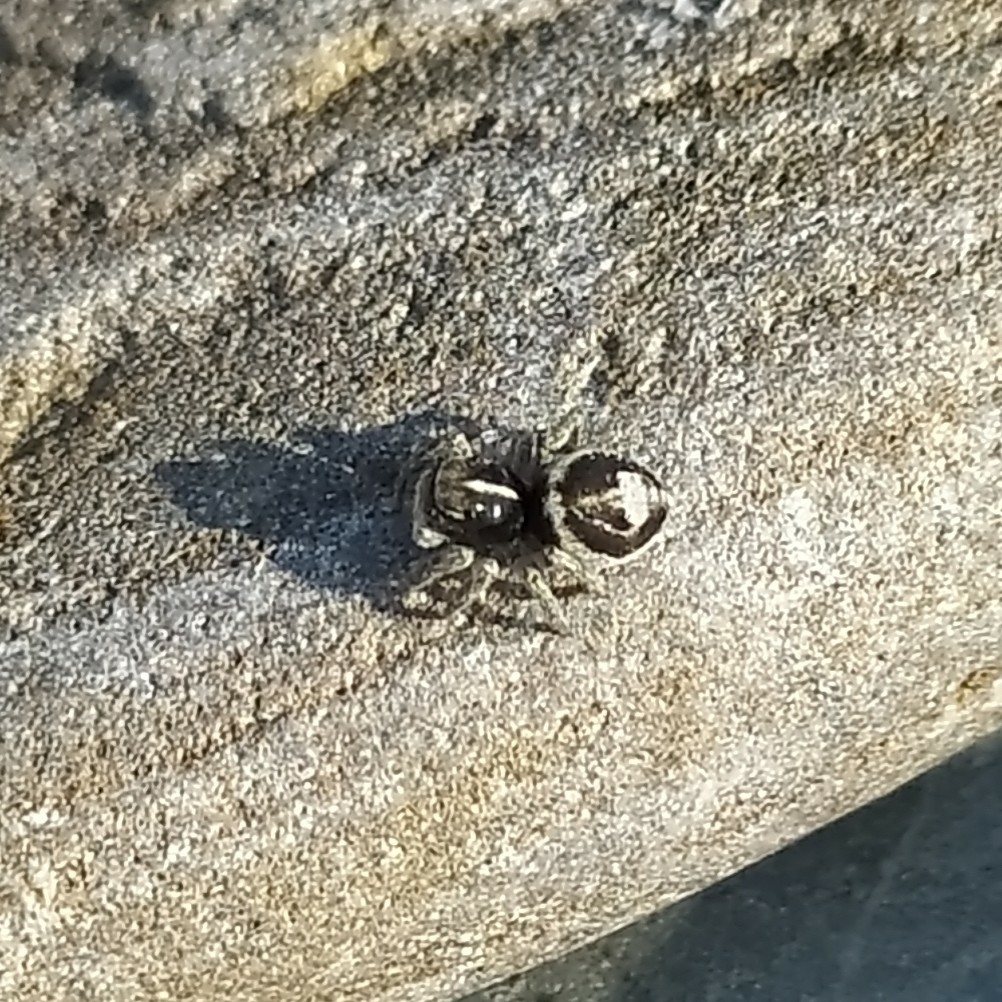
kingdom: Animalia
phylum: Arthropoda
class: Arachnida
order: Araneae
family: Salticidae
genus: Attulus
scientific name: Attulus damini
